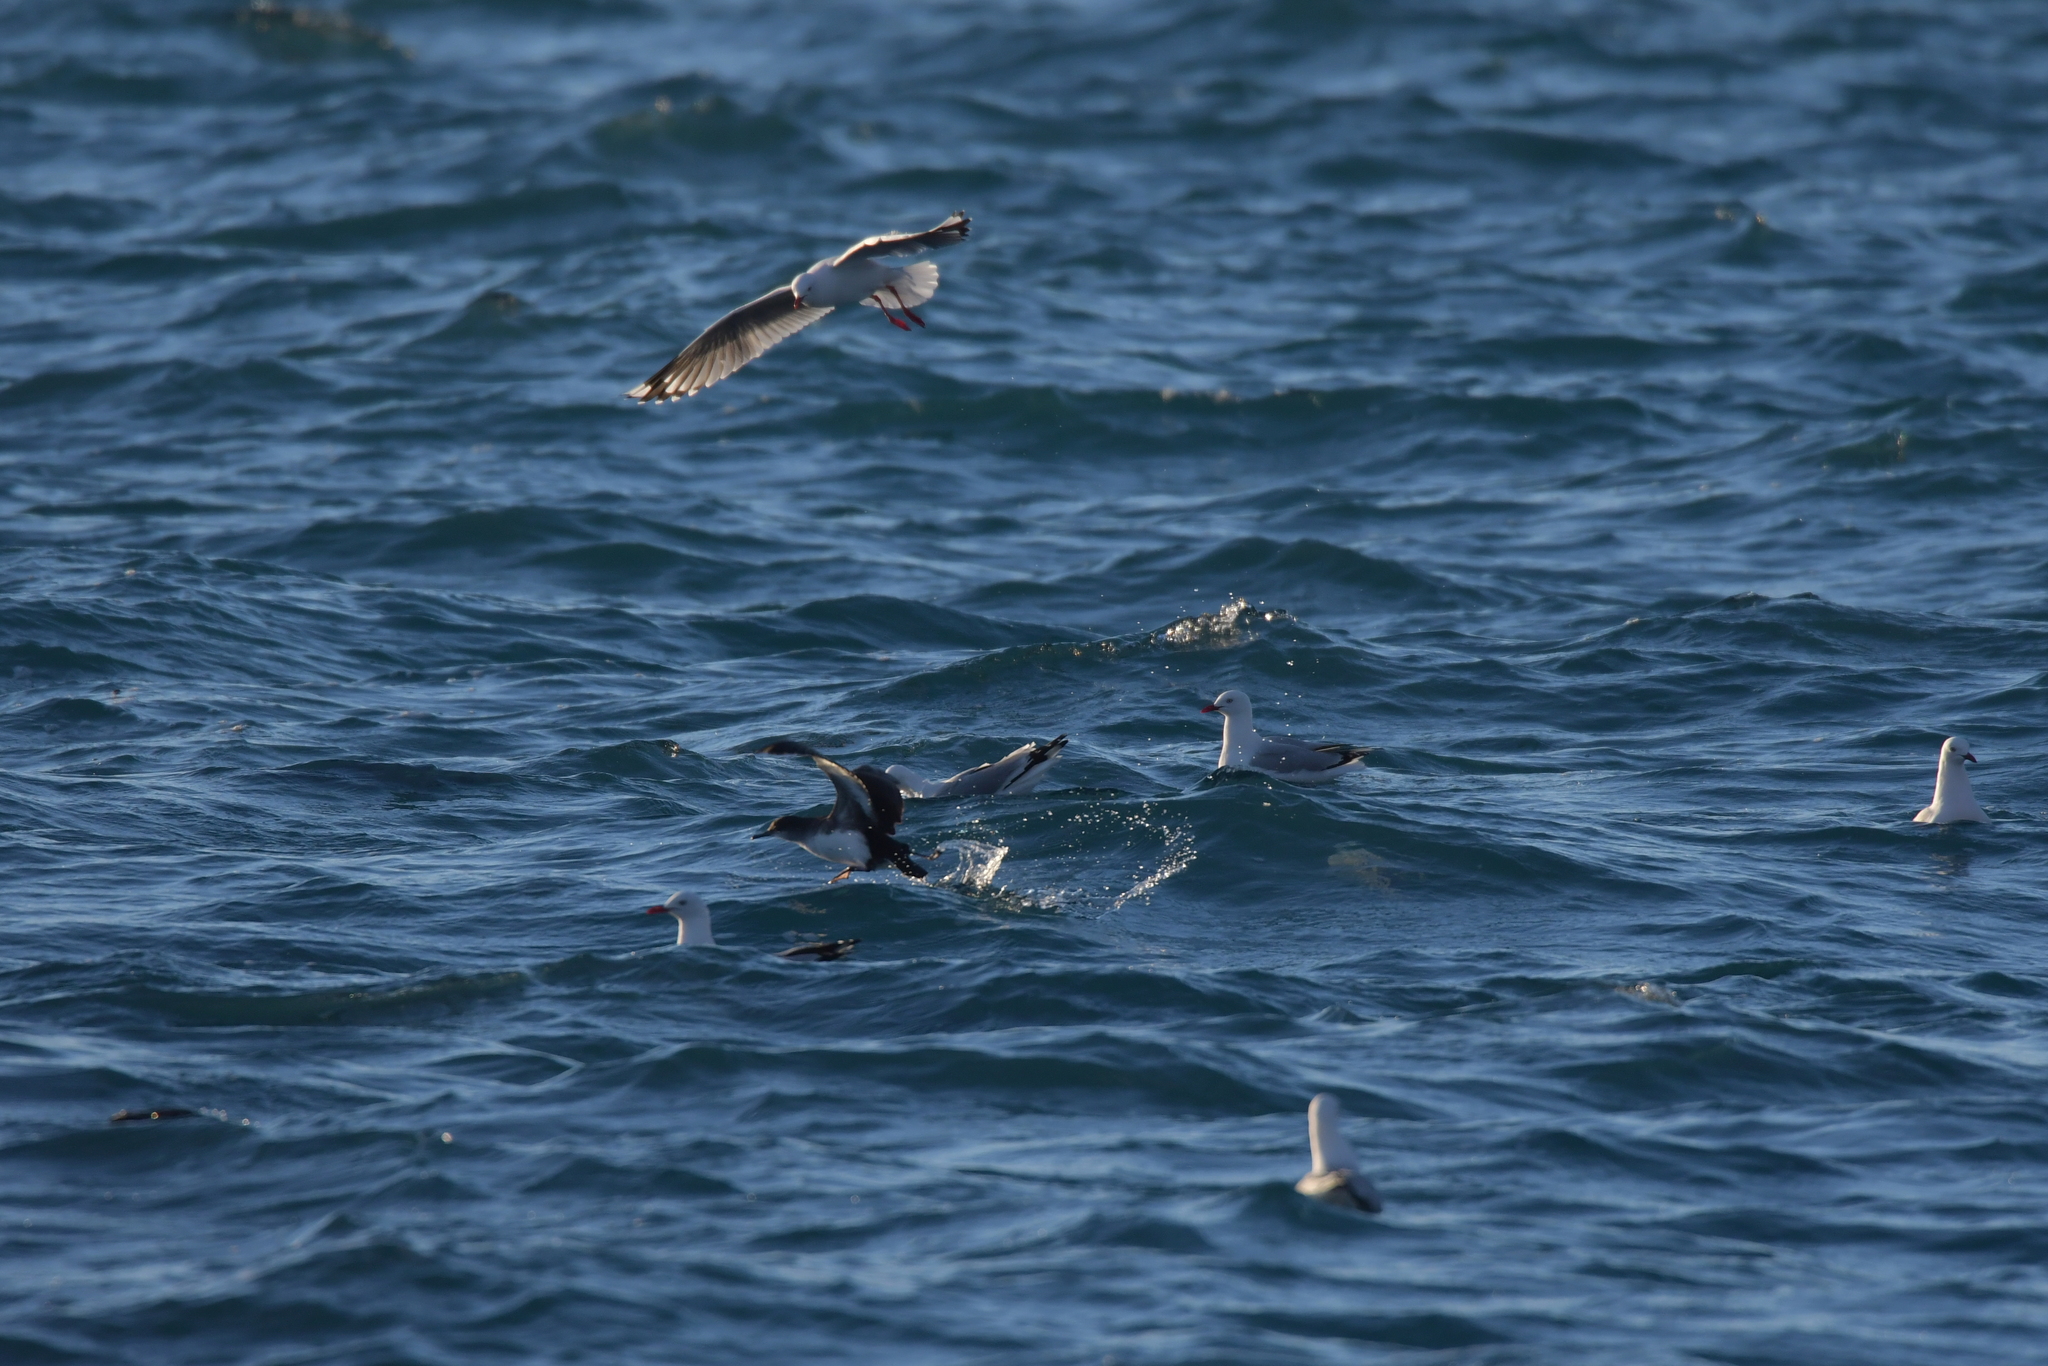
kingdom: Animalia
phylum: Chordata
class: Aves
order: Charadriiformes
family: Laridae
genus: Chroicocephalus
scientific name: Chroicocephalus novaehollandiae
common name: Silver gull
